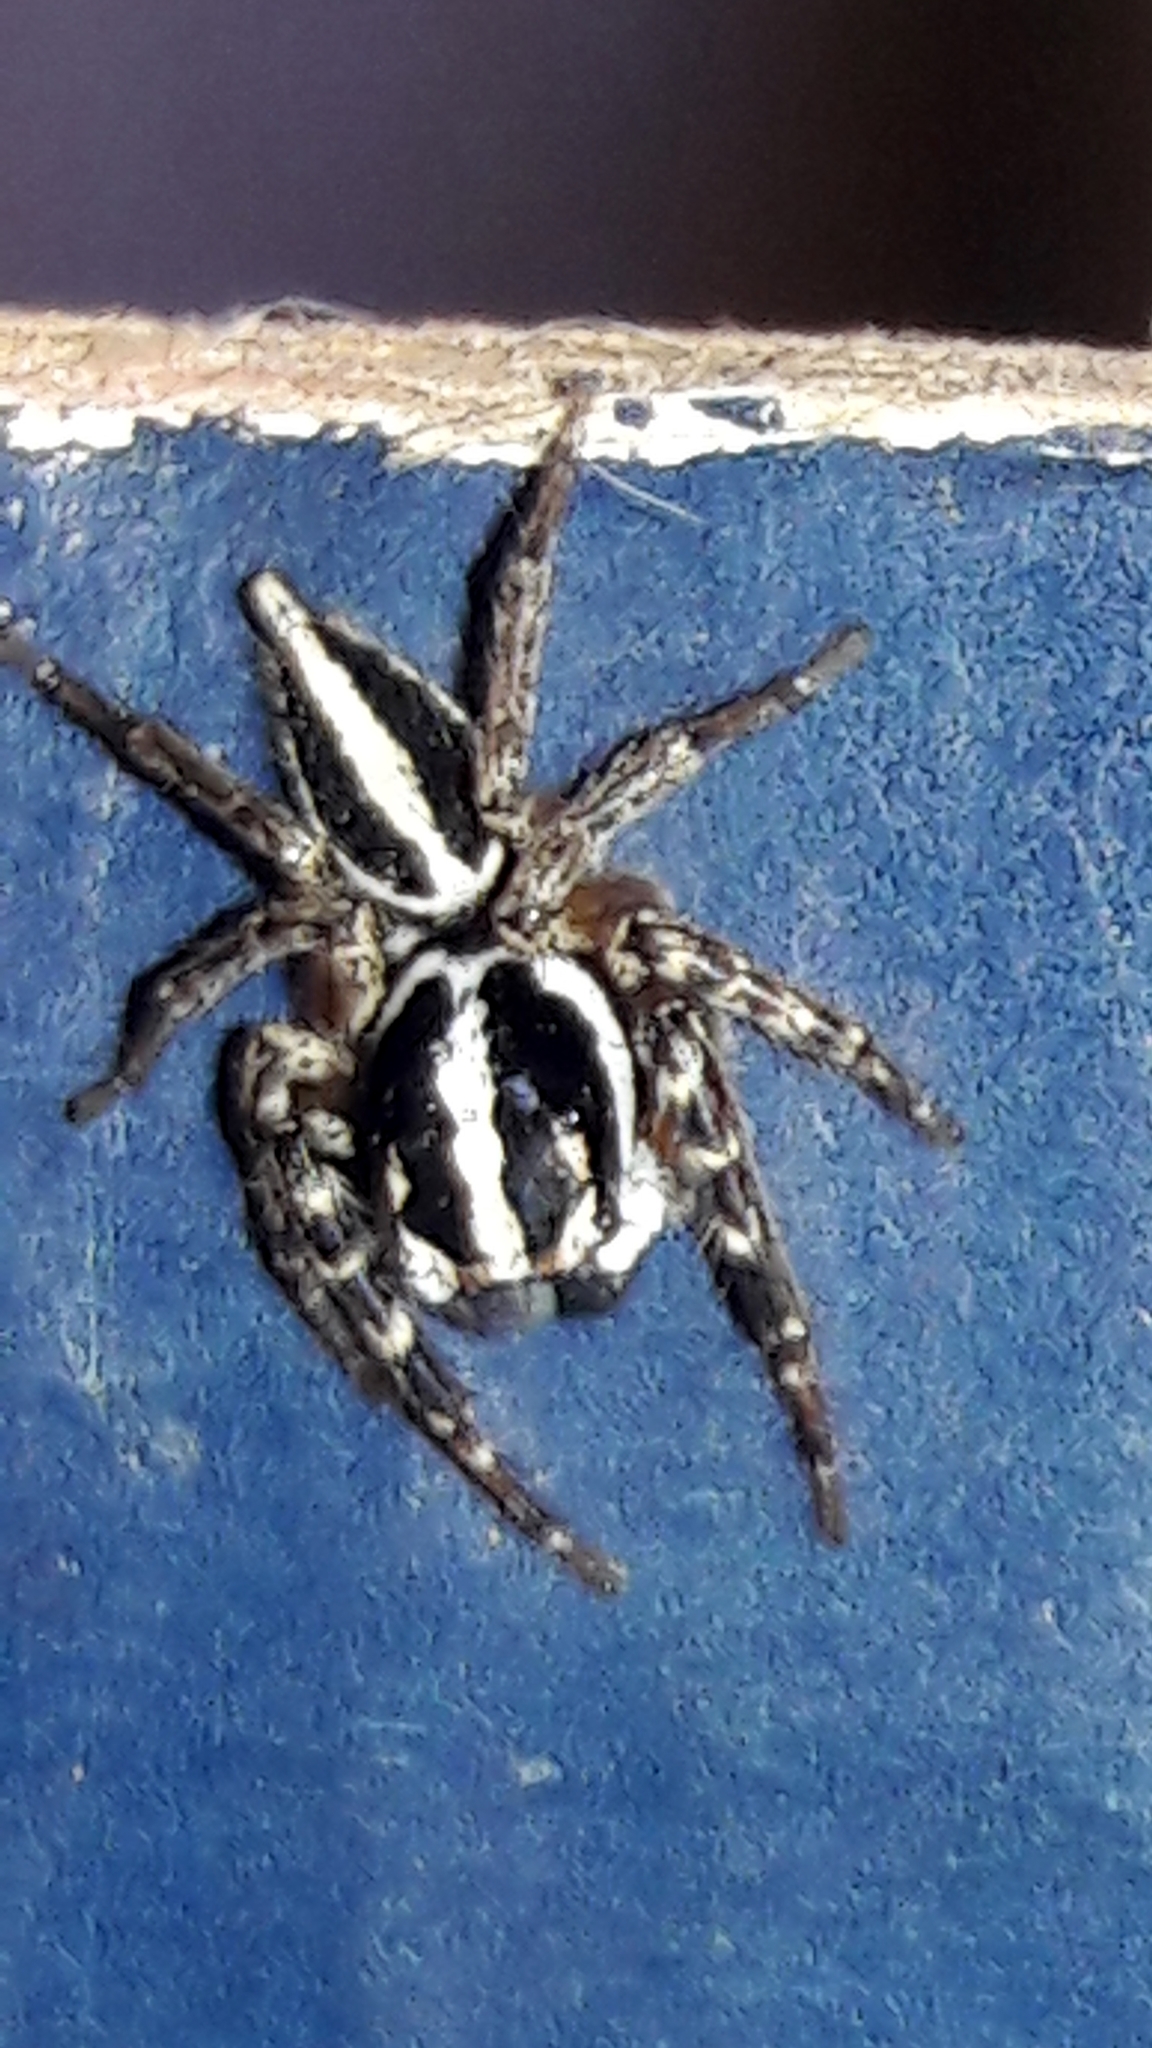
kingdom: Animalia
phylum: Arthropoda
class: Arachnida
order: Araneae
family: Salticidae
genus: Freya
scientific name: Freya nigrotaeniata
